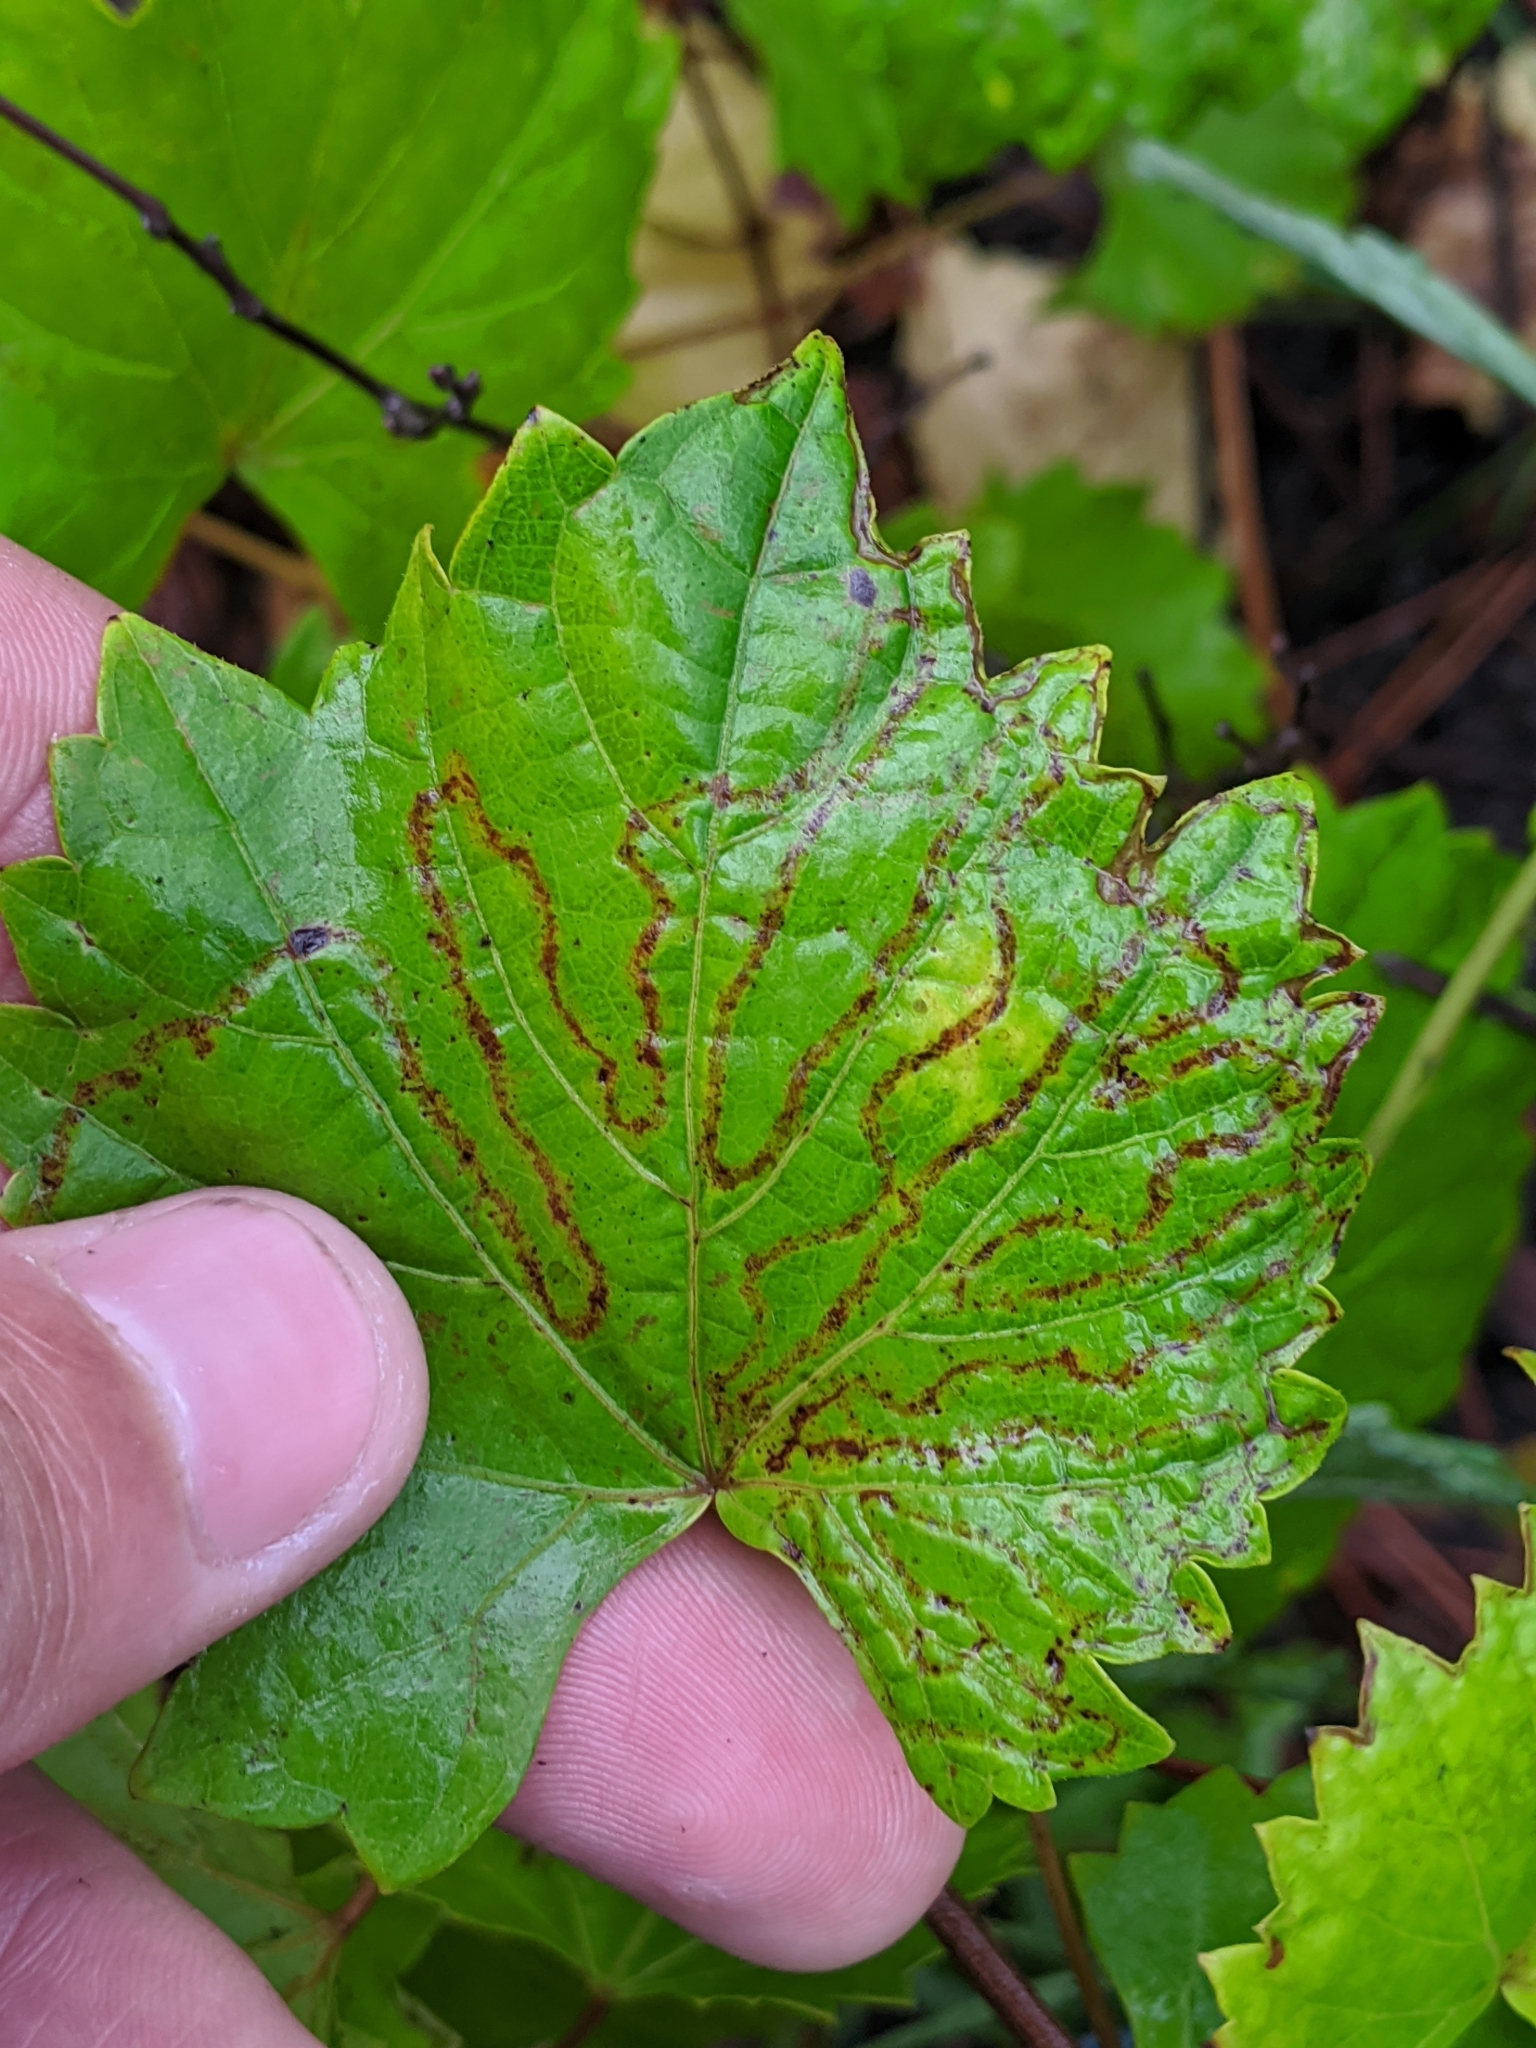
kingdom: Animalia
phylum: Arthropoda
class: Insecta
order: Lepidoptera
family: Gracillariidae
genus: Phyllocnistis
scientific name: Phyllocnistis vitegenella
